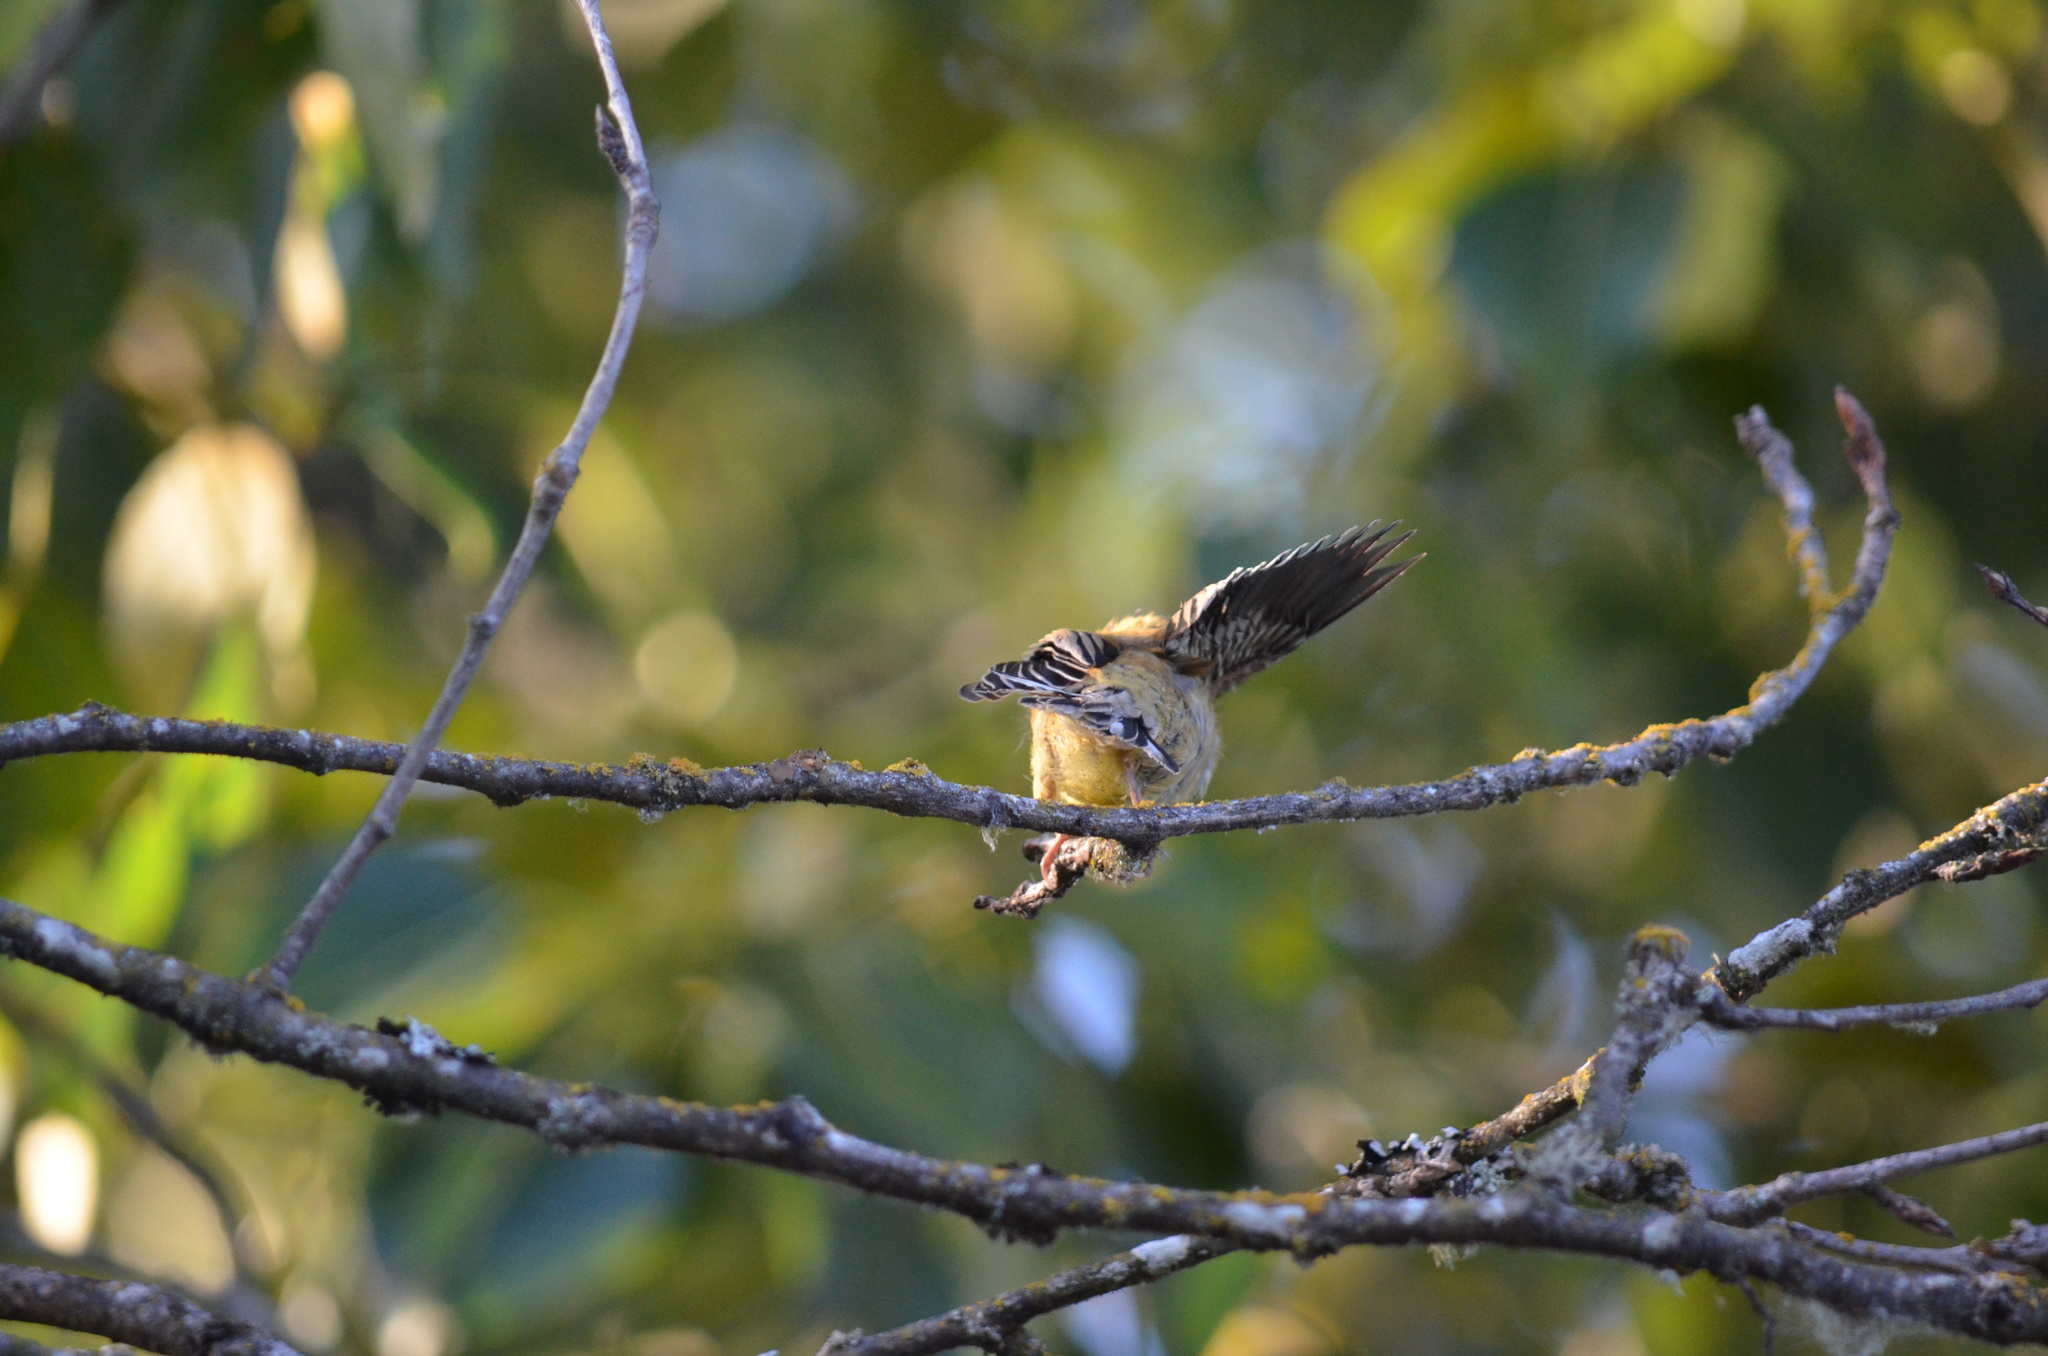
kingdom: Animalia
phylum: Chordata
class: Aves
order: Passeriformes
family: Fringillidae
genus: Spinus
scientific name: Spinus tristis
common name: American goldfinch
